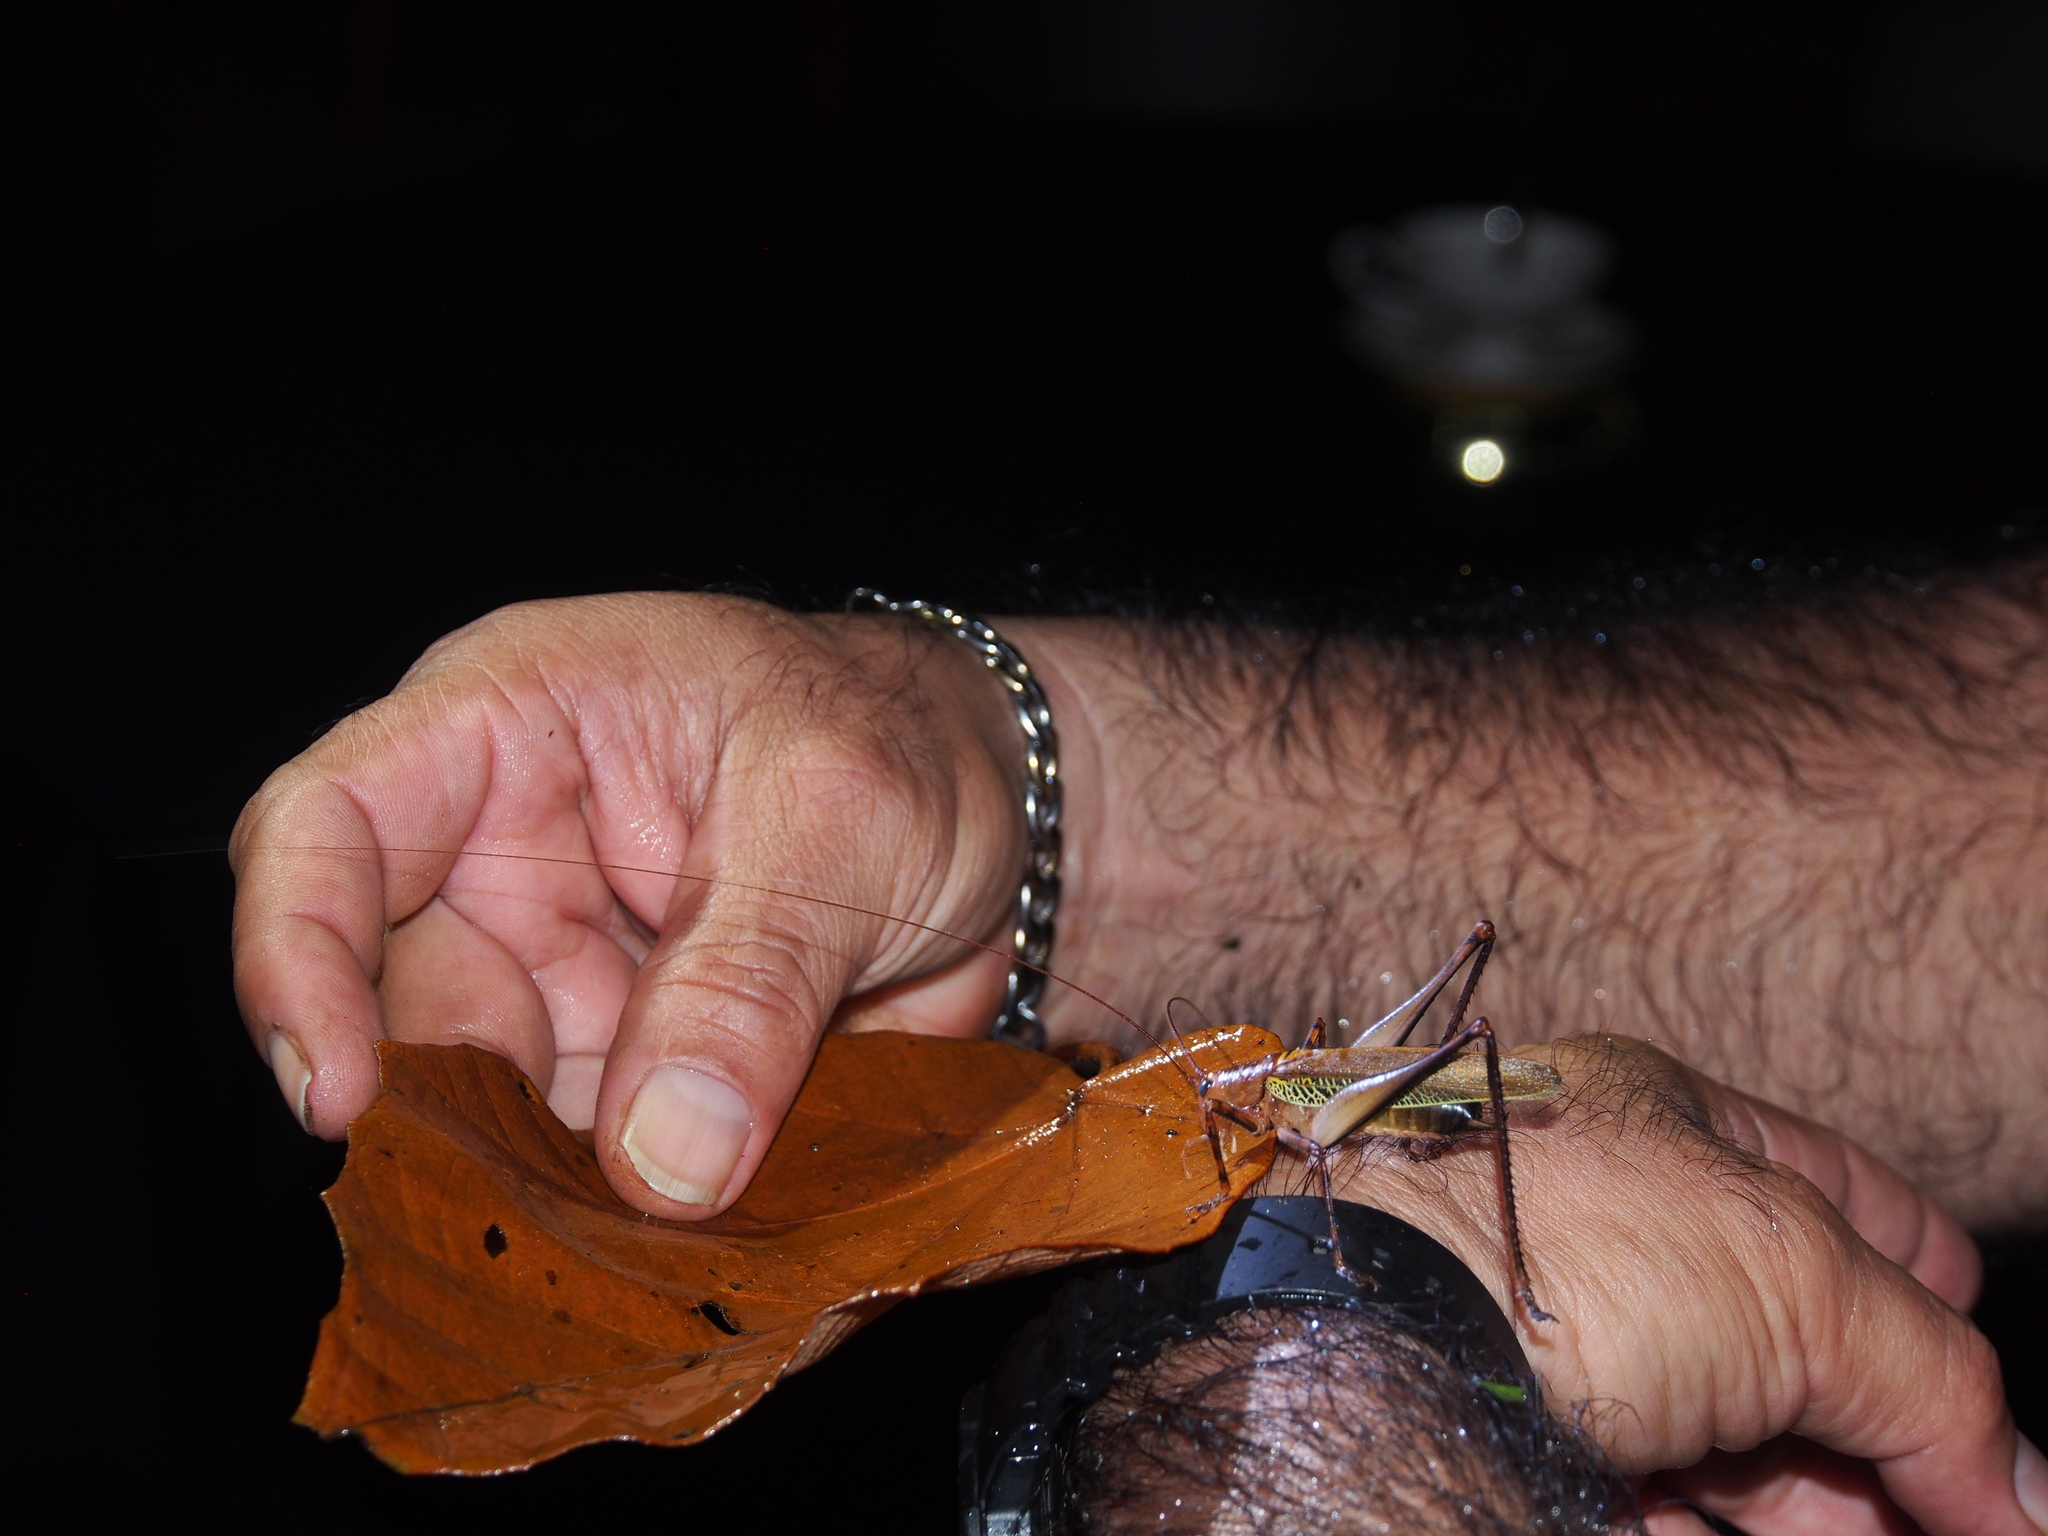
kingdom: Animalia
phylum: Arthropoda
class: Insecta
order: Orthoptera
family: Tettigoniidae
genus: Ischnomela
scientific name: Ischnomela pulchripennis
